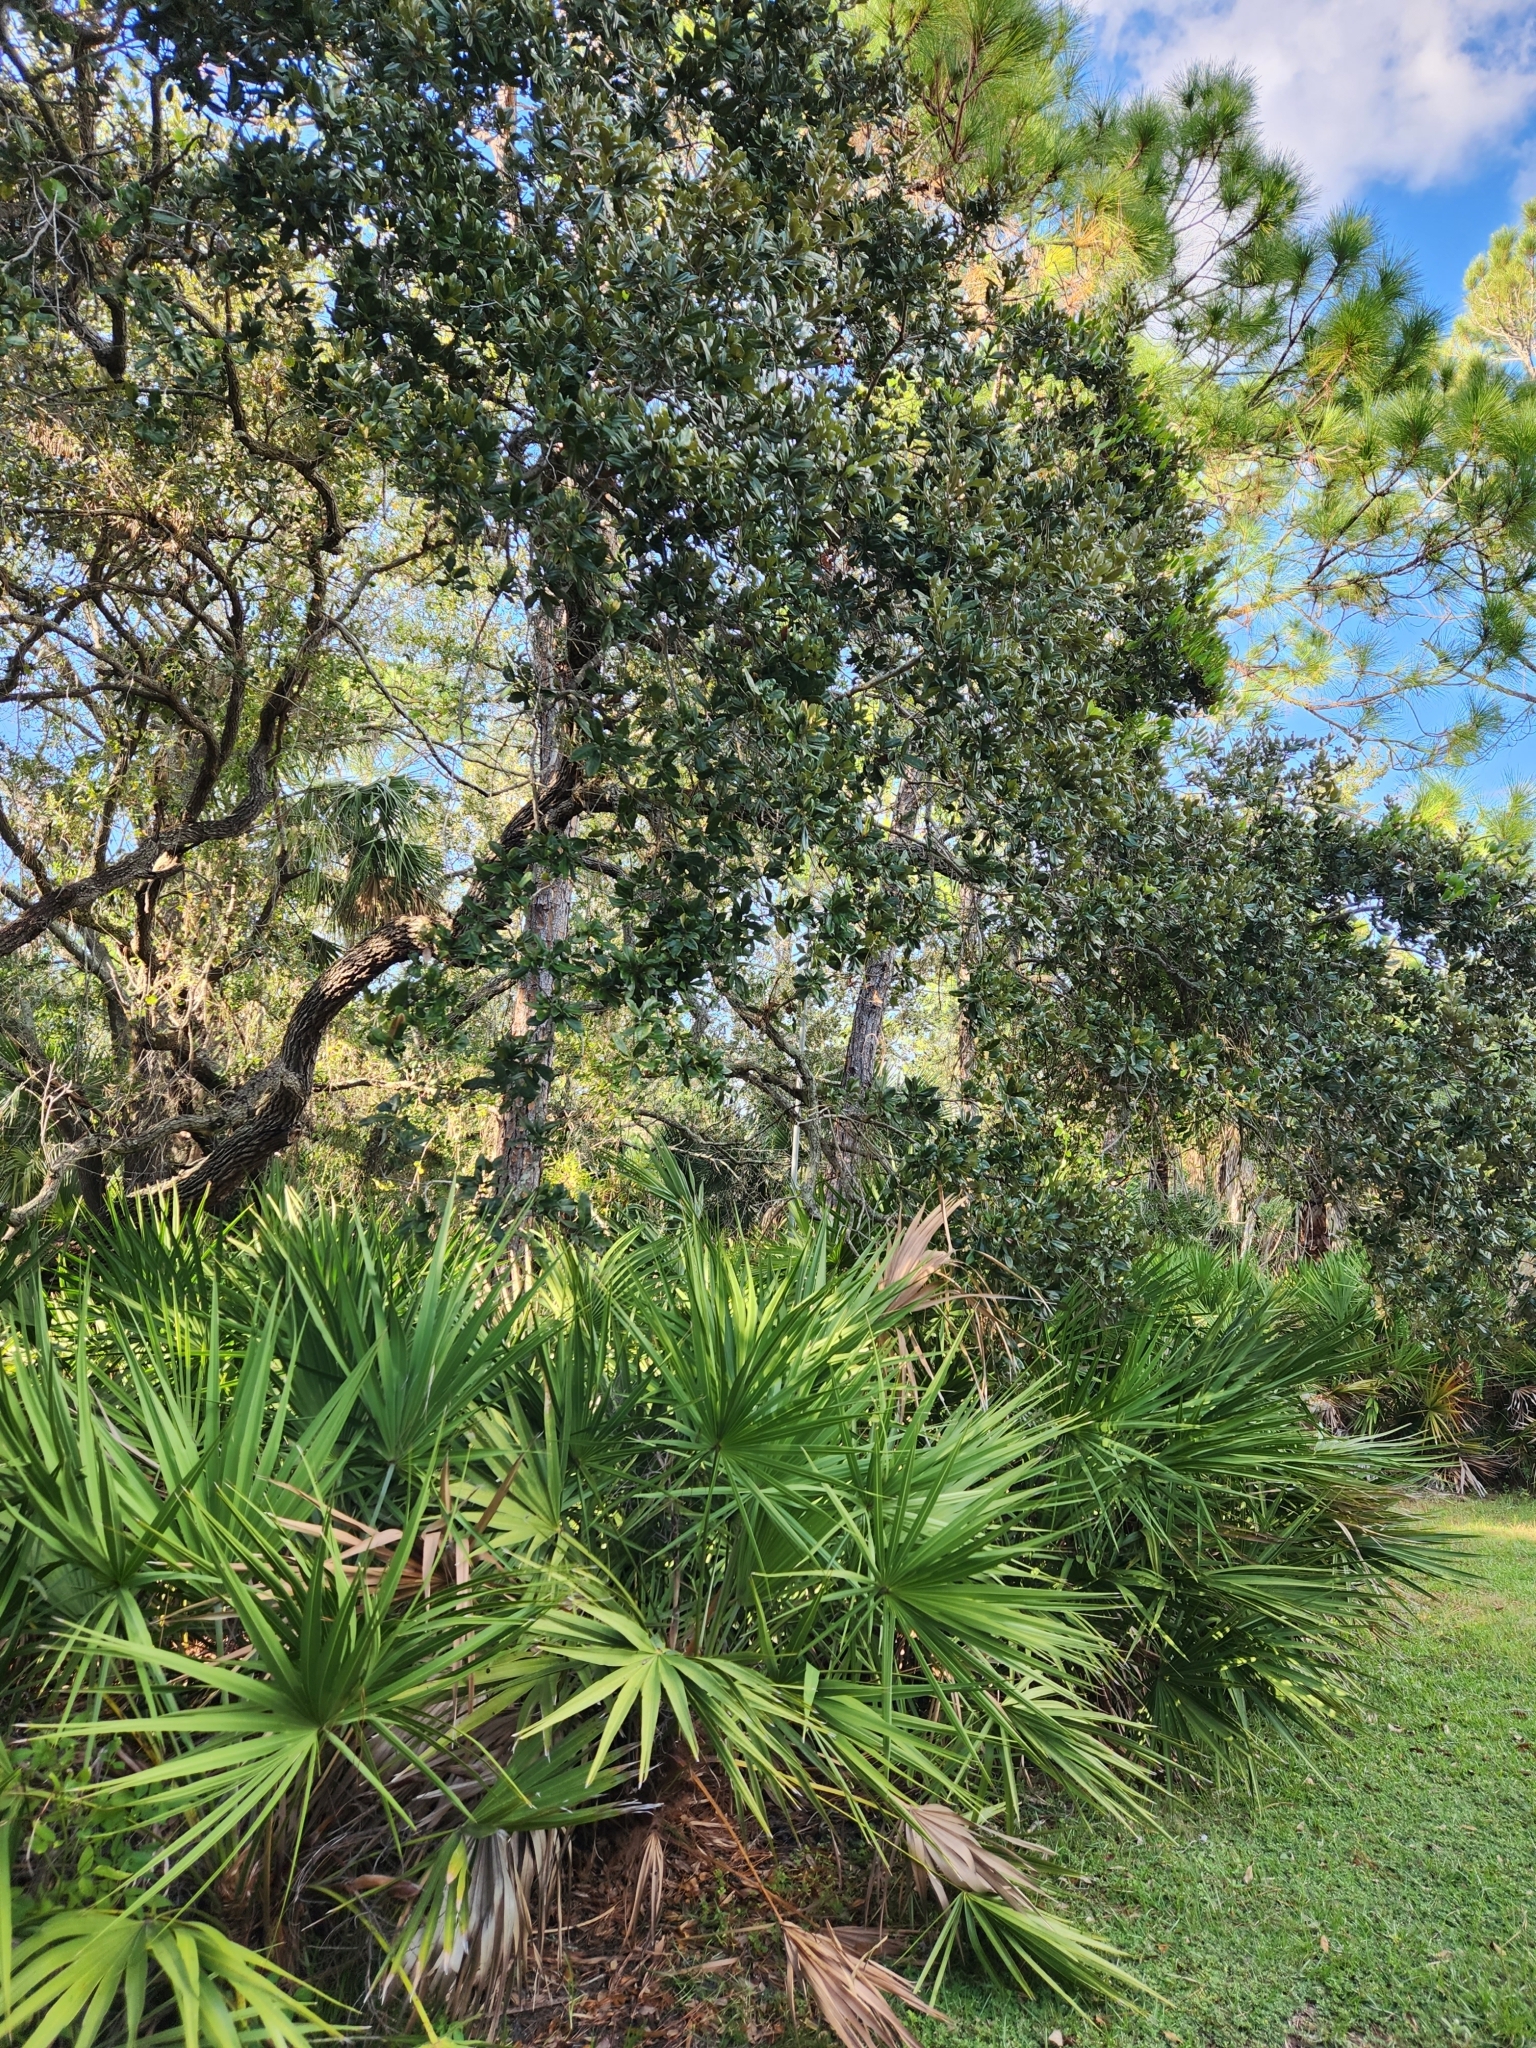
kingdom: Plantae
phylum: Tracheophyta
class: Magnoliopsida
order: Fagales
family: Fagaceae
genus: Quercus
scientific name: Quercus virginiana
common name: Southern live oak
